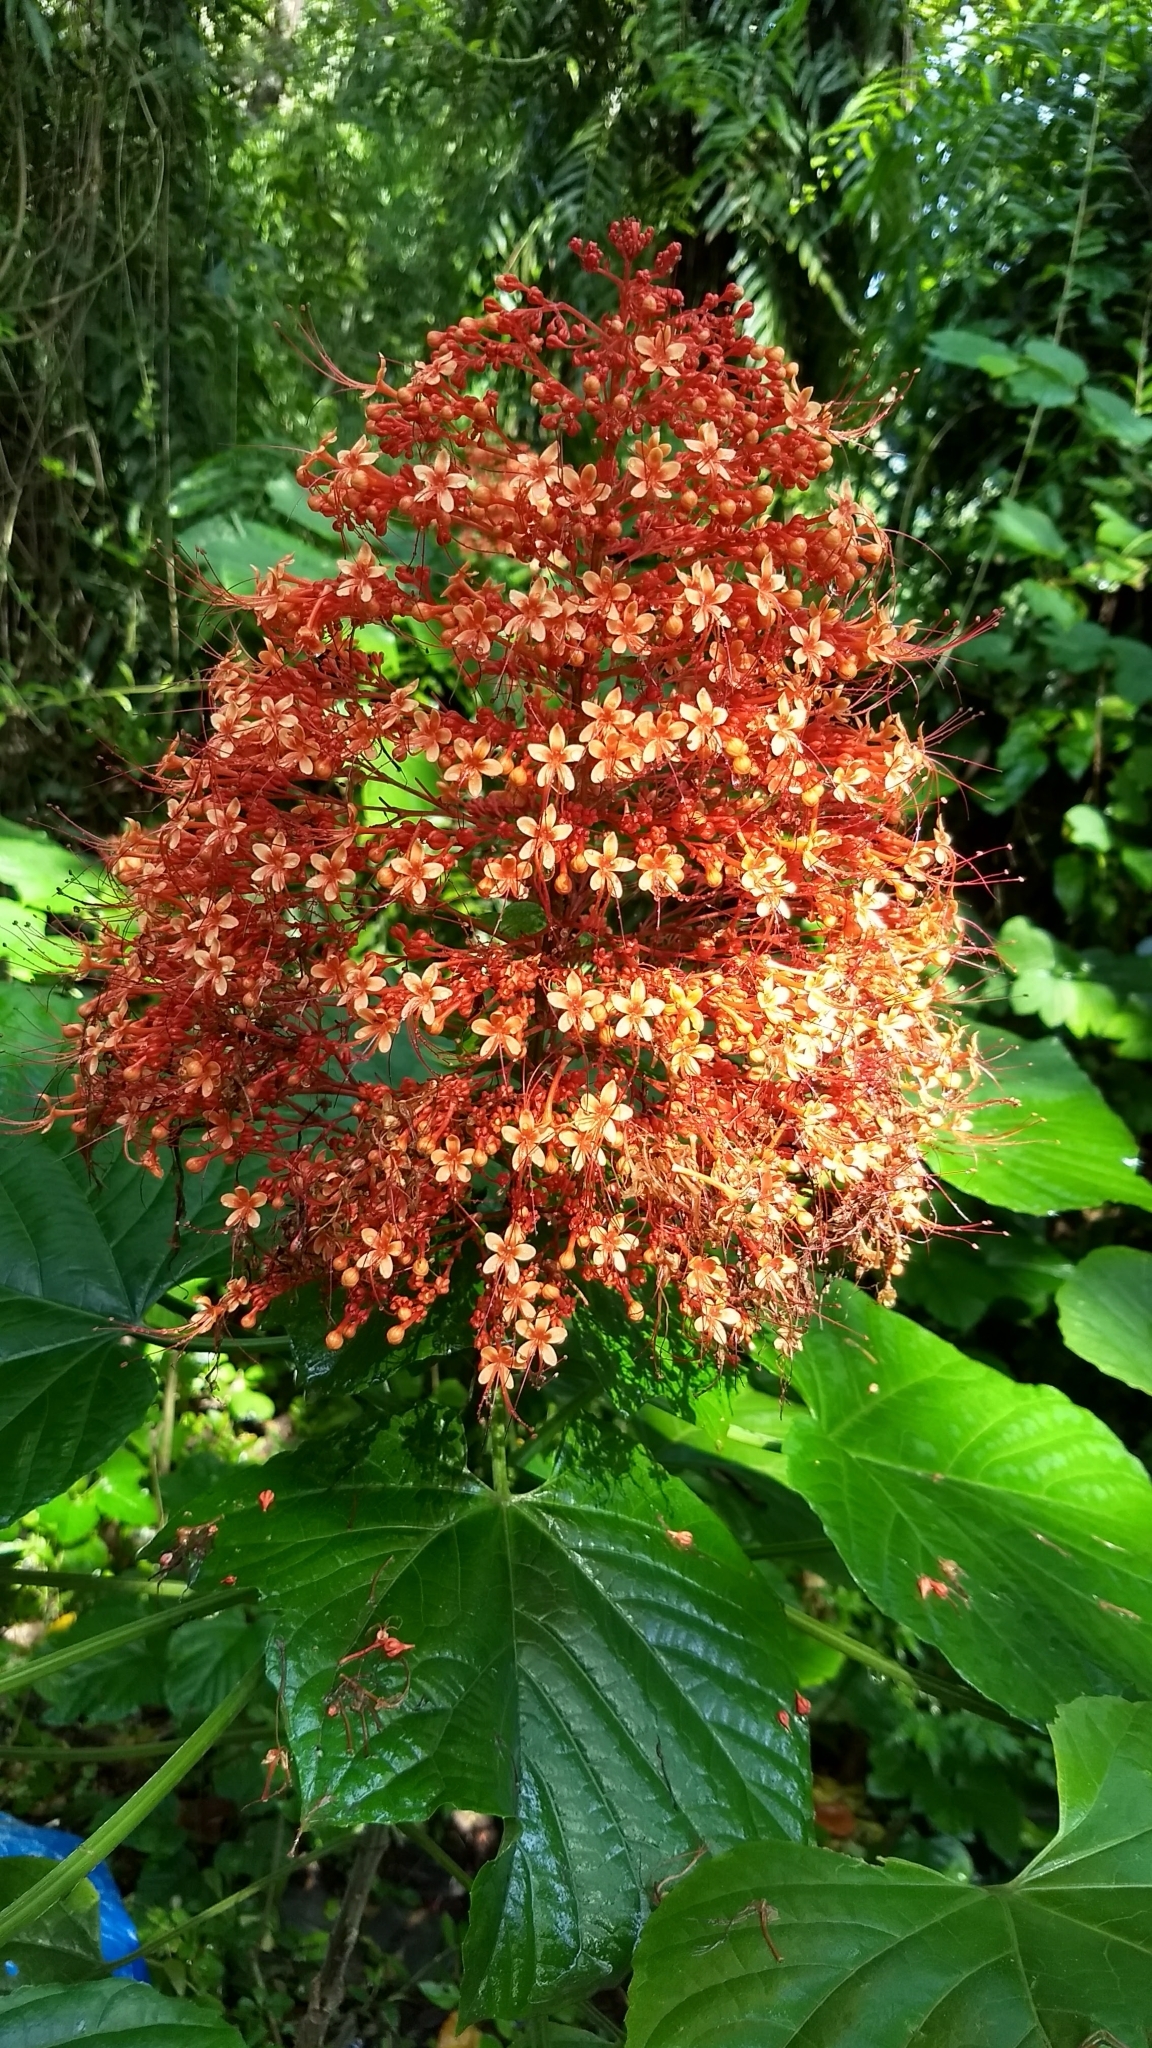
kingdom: Plantae
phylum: Tracheophyta
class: Magnoliopsida
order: Lamiales
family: Lamiaceae
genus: Clerodendrum
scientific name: Clerodendrum paniculatum
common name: Pagoda-flower
